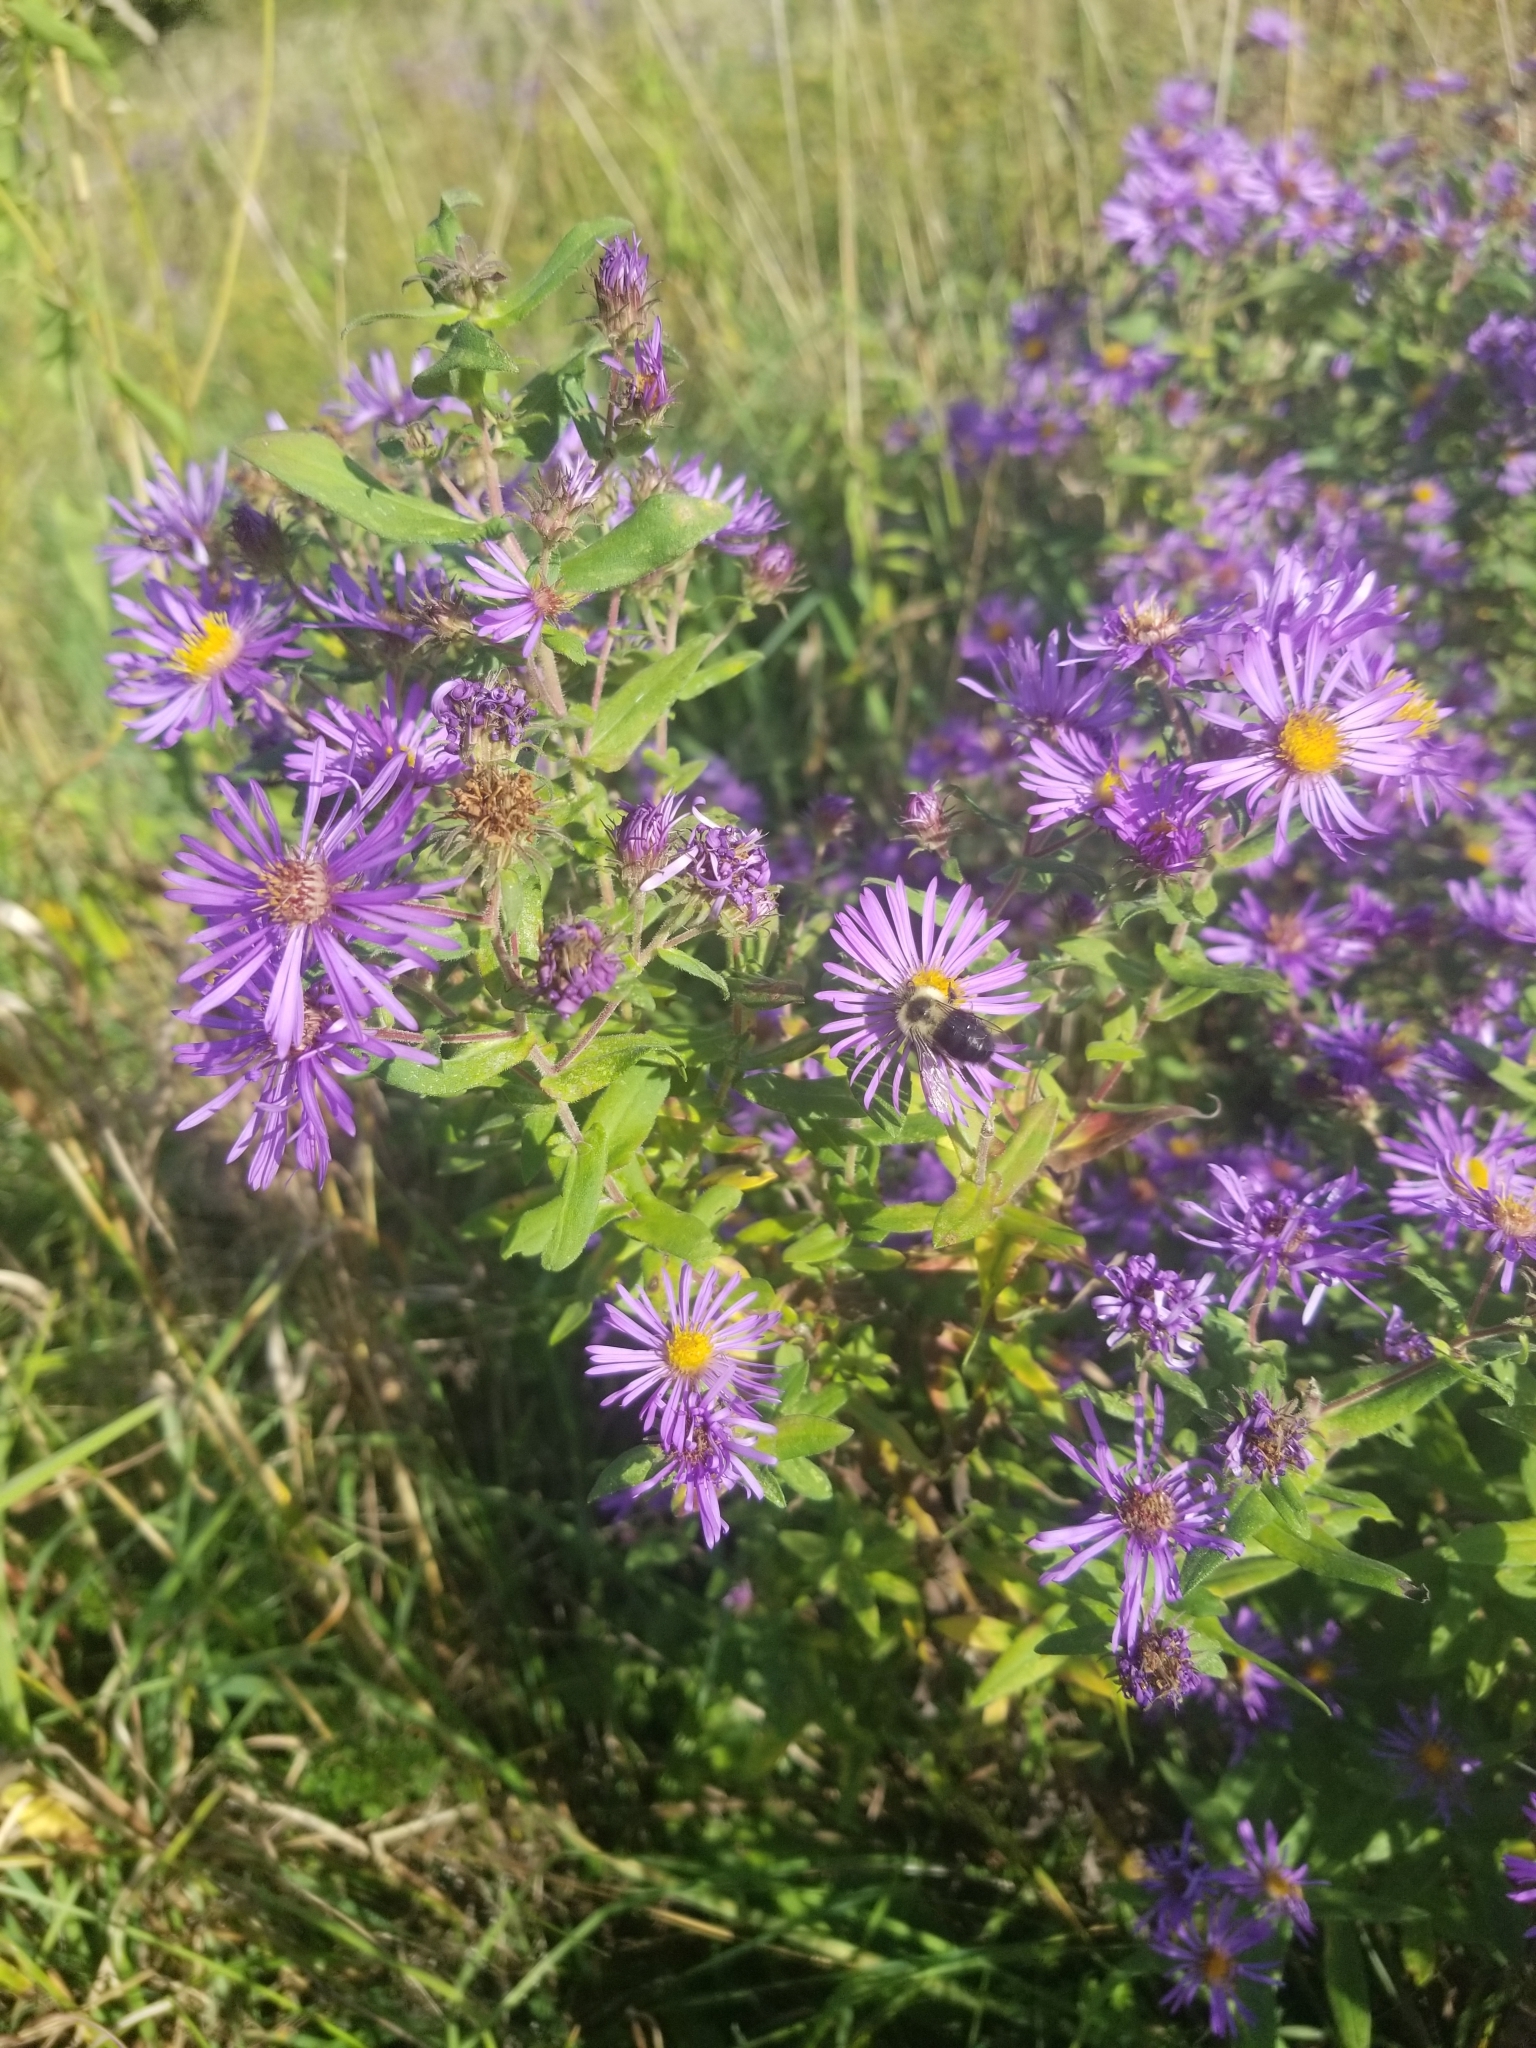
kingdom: Animalia
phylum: Arthropoda
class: Insecta
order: Hymenoptera
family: Apidae
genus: Bombus
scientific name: Bombus impatiens
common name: Common eastern bumble bee
